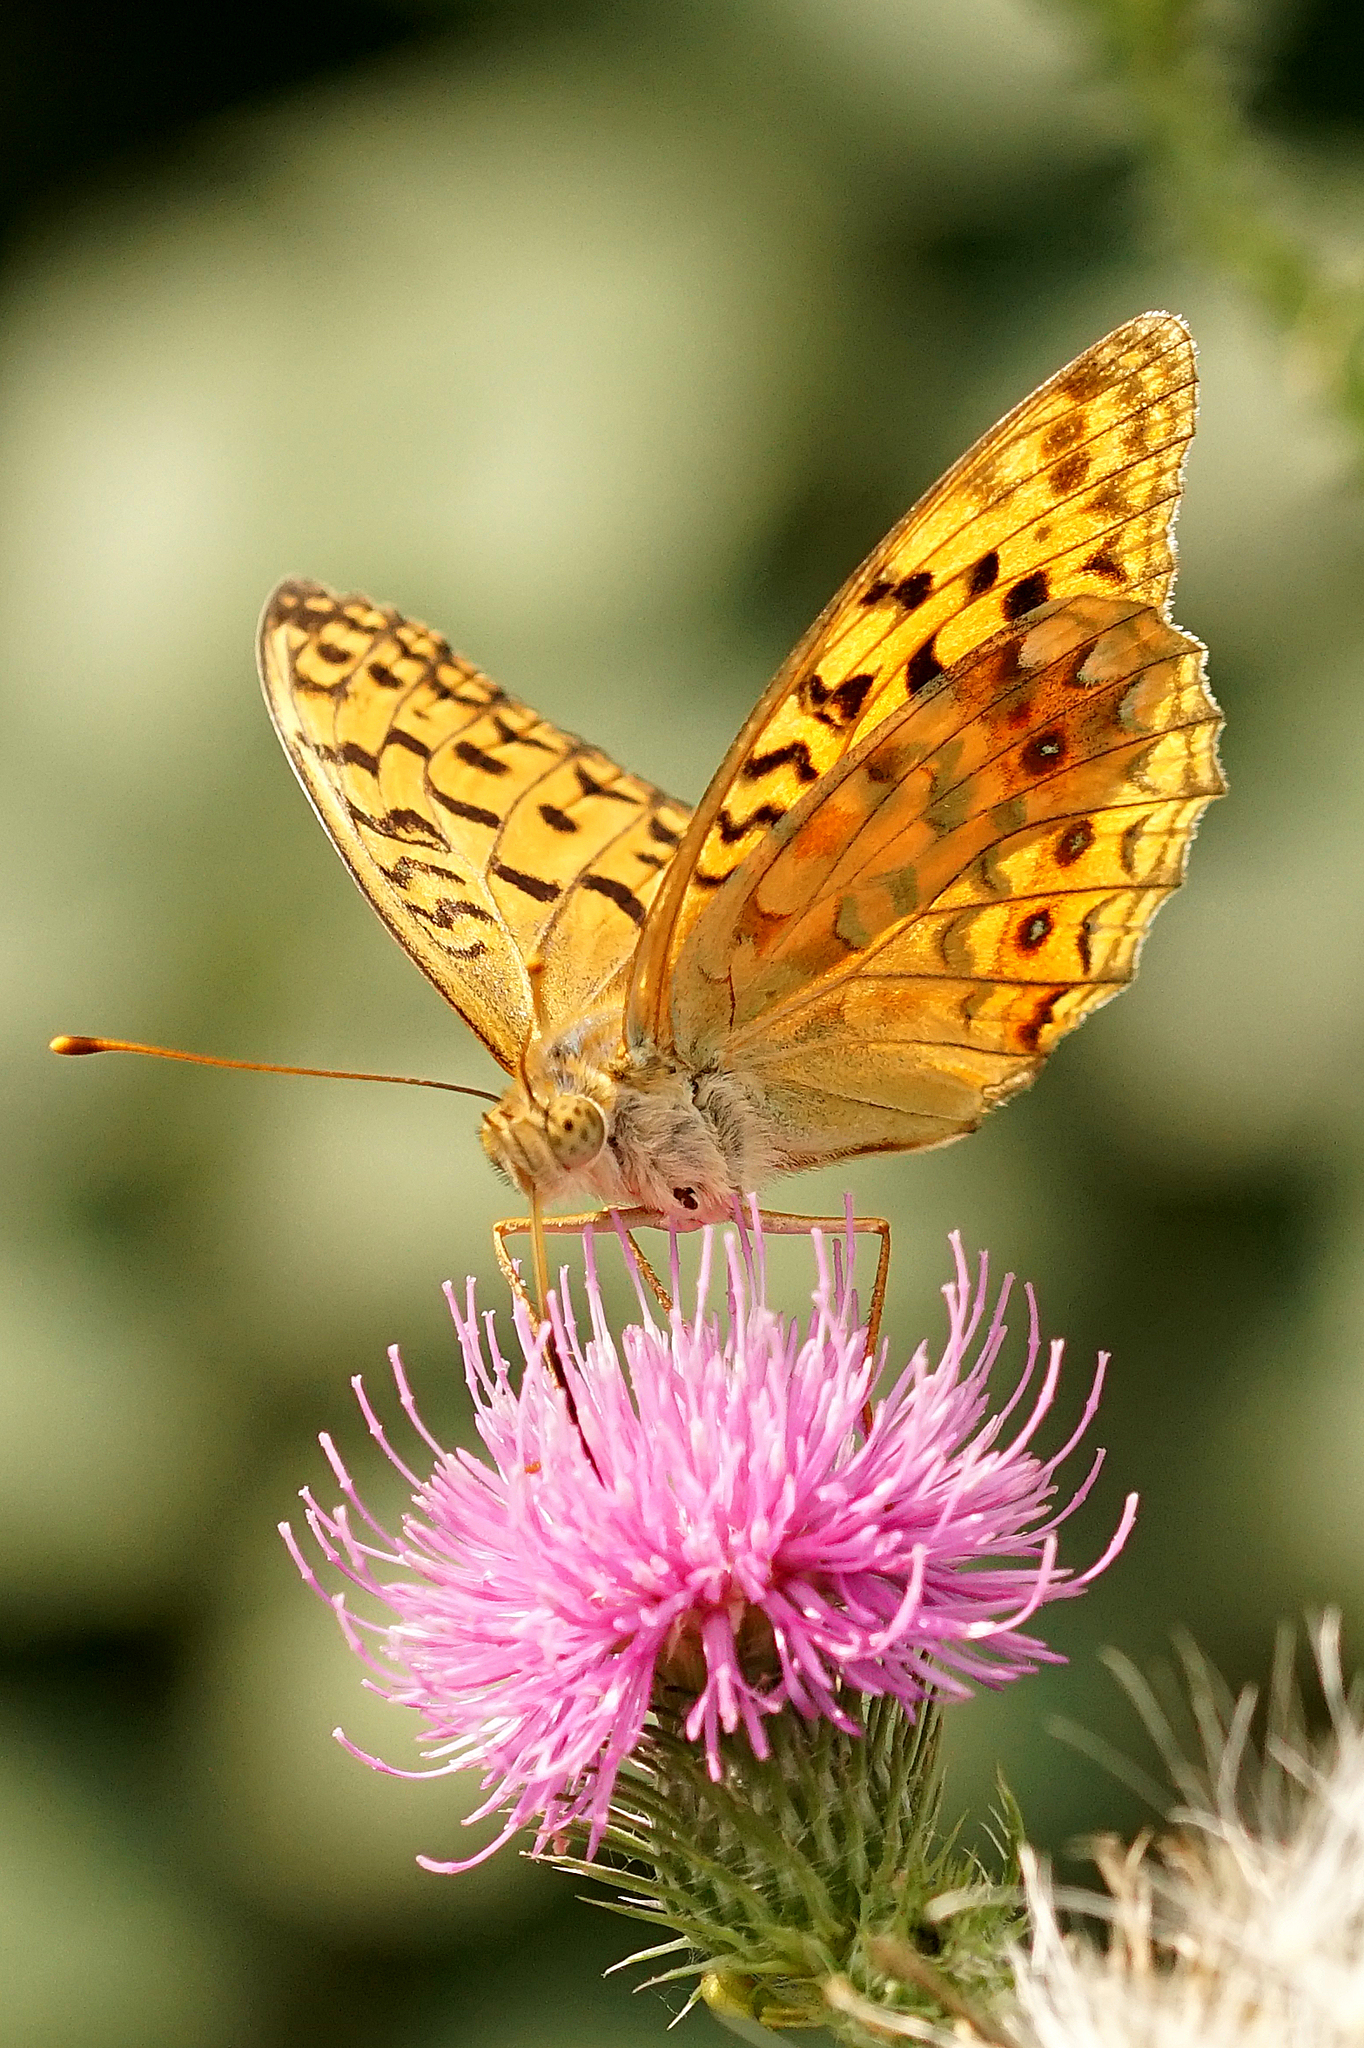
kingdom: Animalia
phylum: Arthropoda
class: Insecta
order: Lepidoptera
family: Nymphalidae
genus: Fabriciana
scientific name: Fabriciana adippe
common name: High brown fritillary
